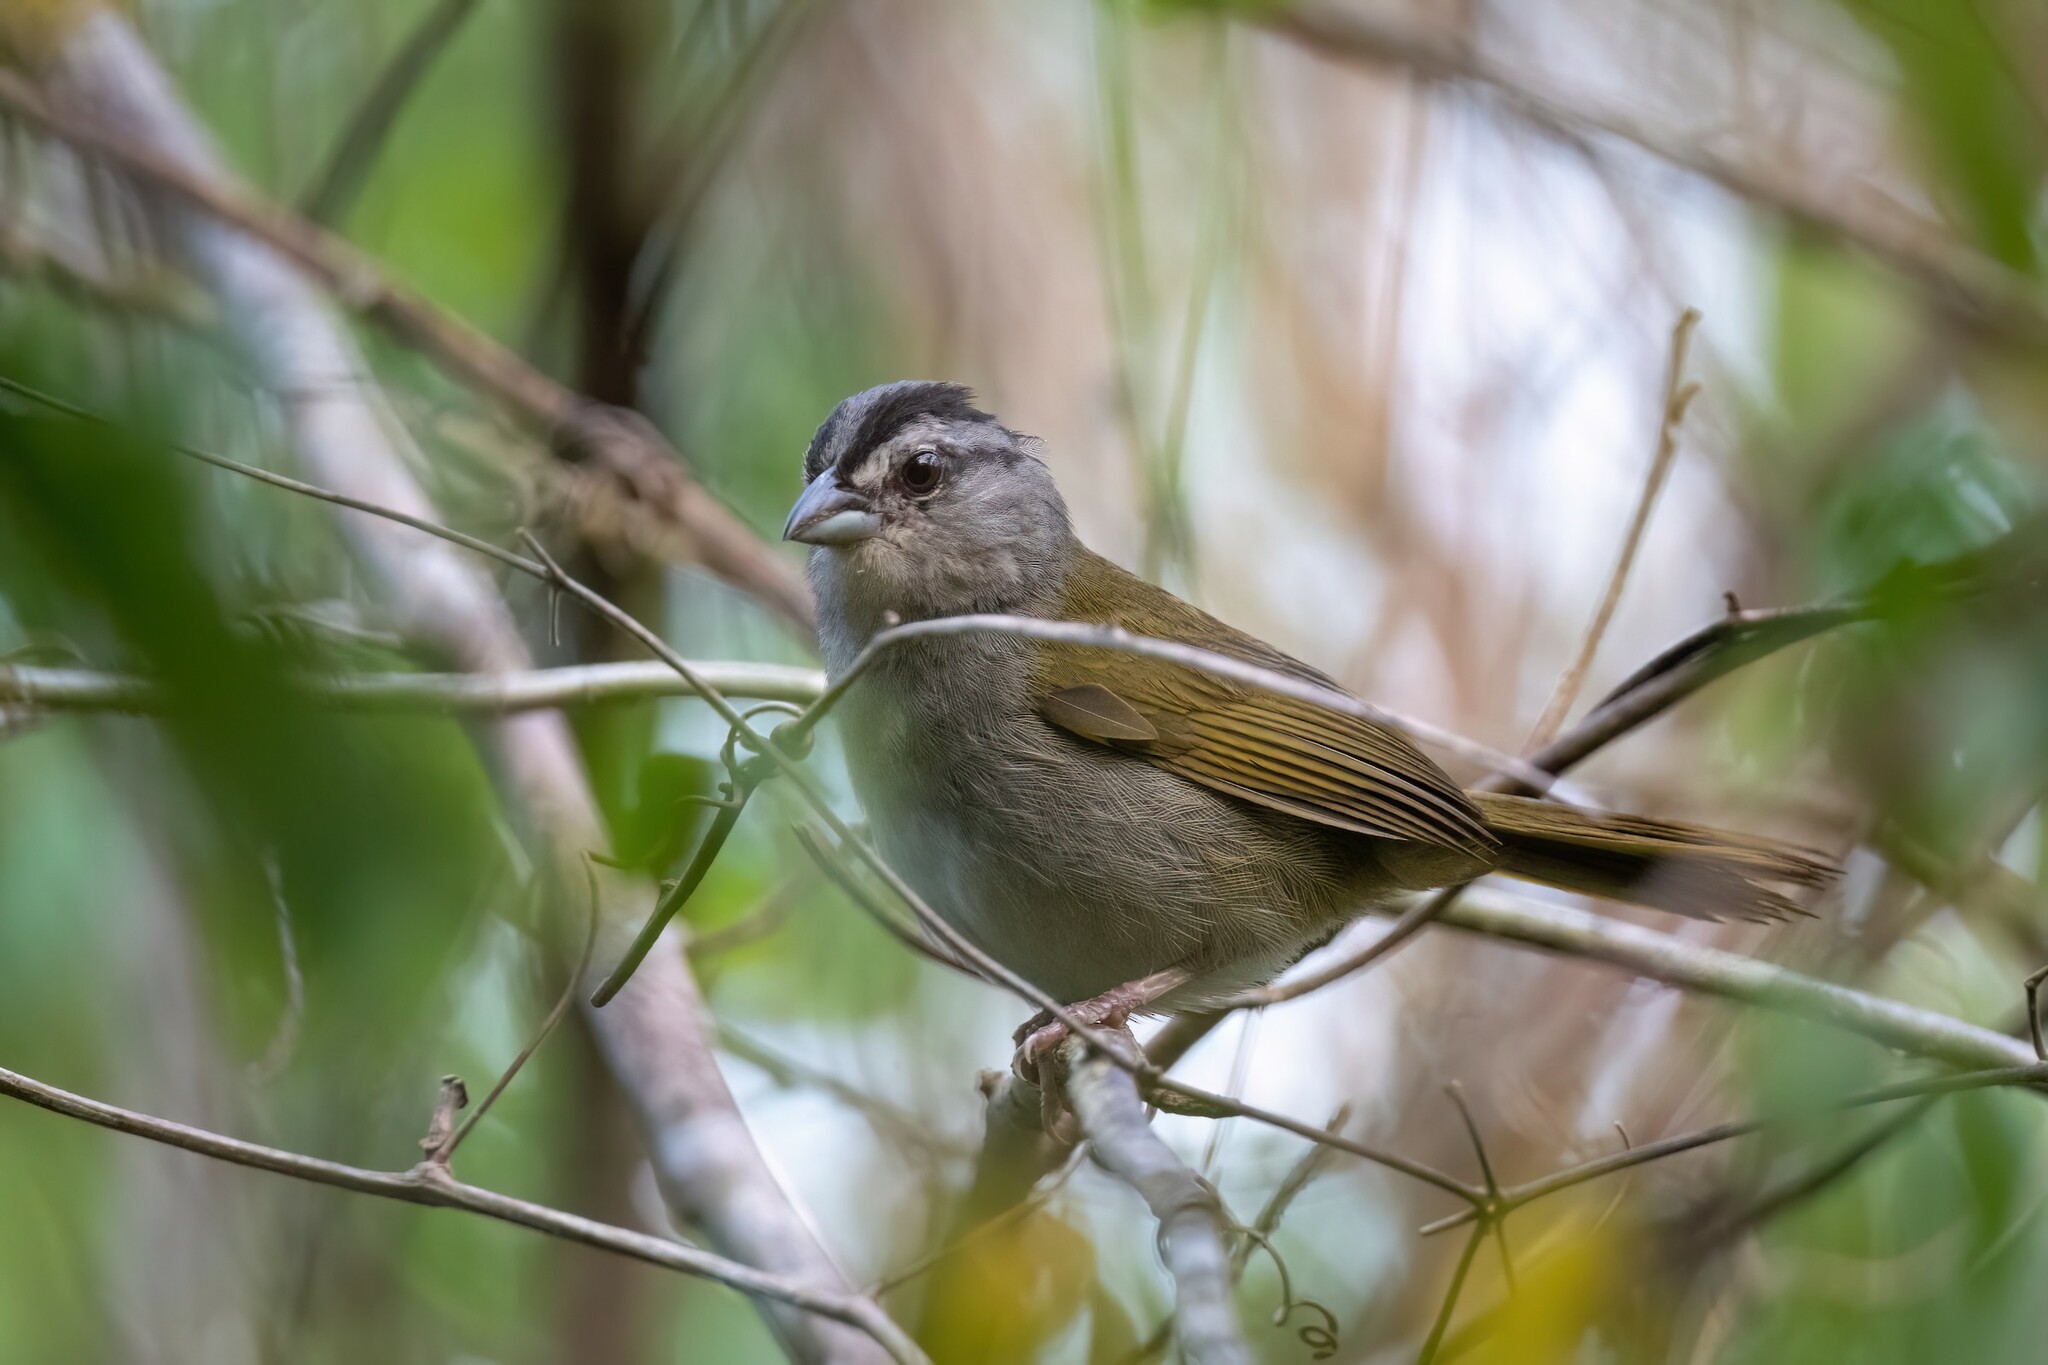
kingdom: Animalia
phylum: Chordata
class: Aves
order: Passeriformes
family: Passerellidae
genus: Arremonops
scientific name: Arremonops chloronotus
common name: Green-backed sparrow
